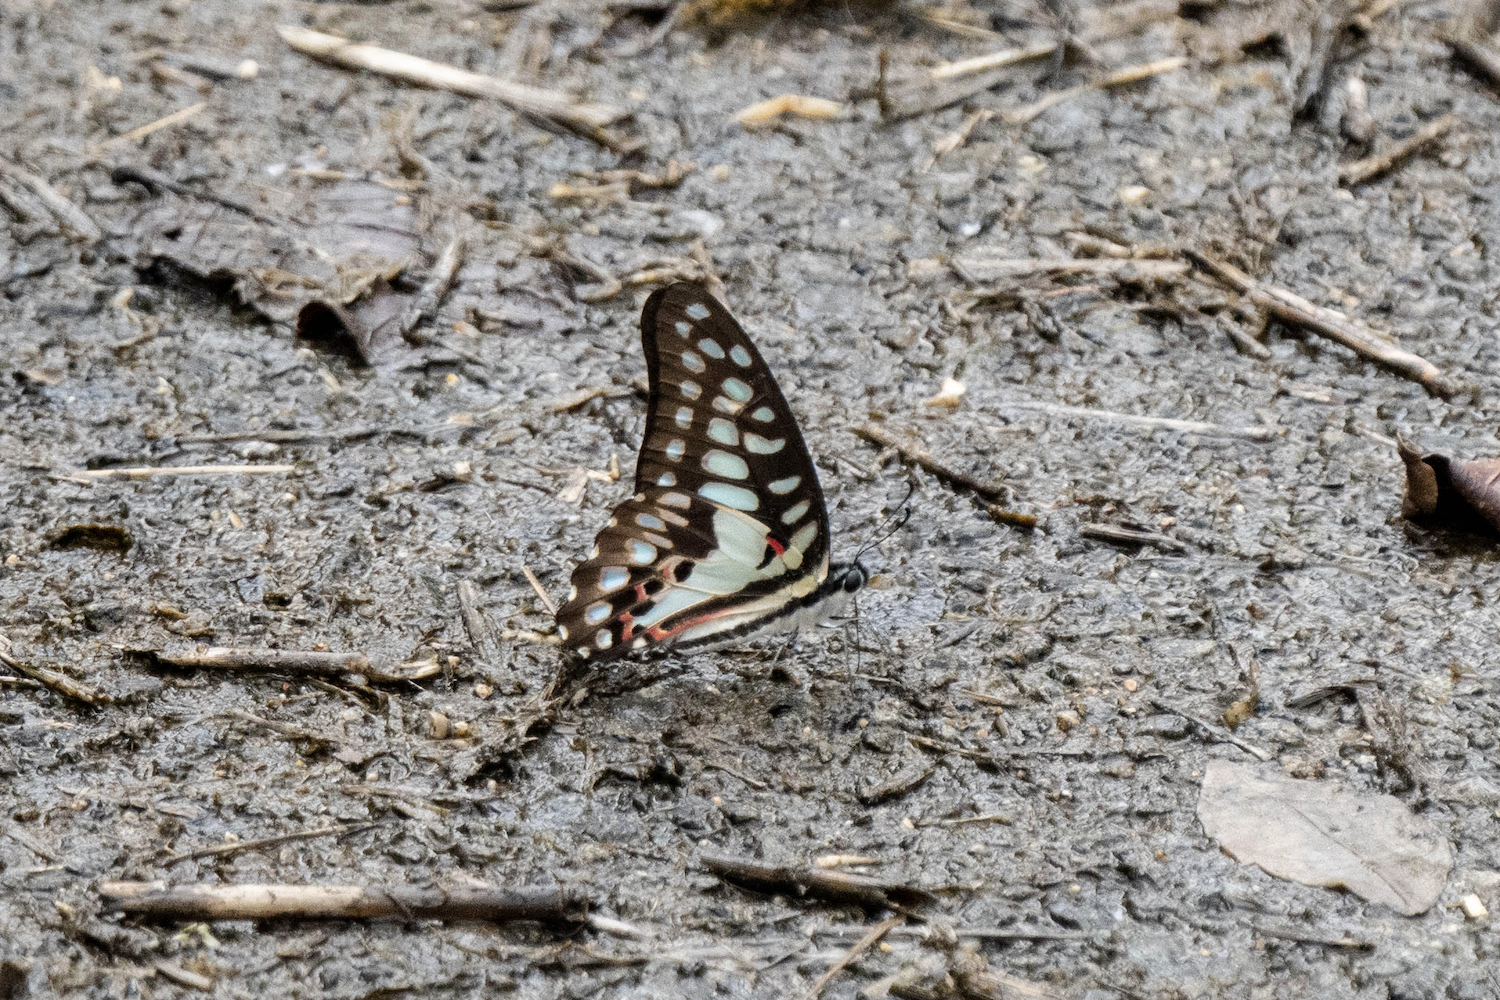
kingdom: Animalia
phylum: Arthropoda
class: Insecta
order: Lepidoptera
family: Papilionidae
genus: Graphium
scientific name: Graphium doson
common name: Common jay
